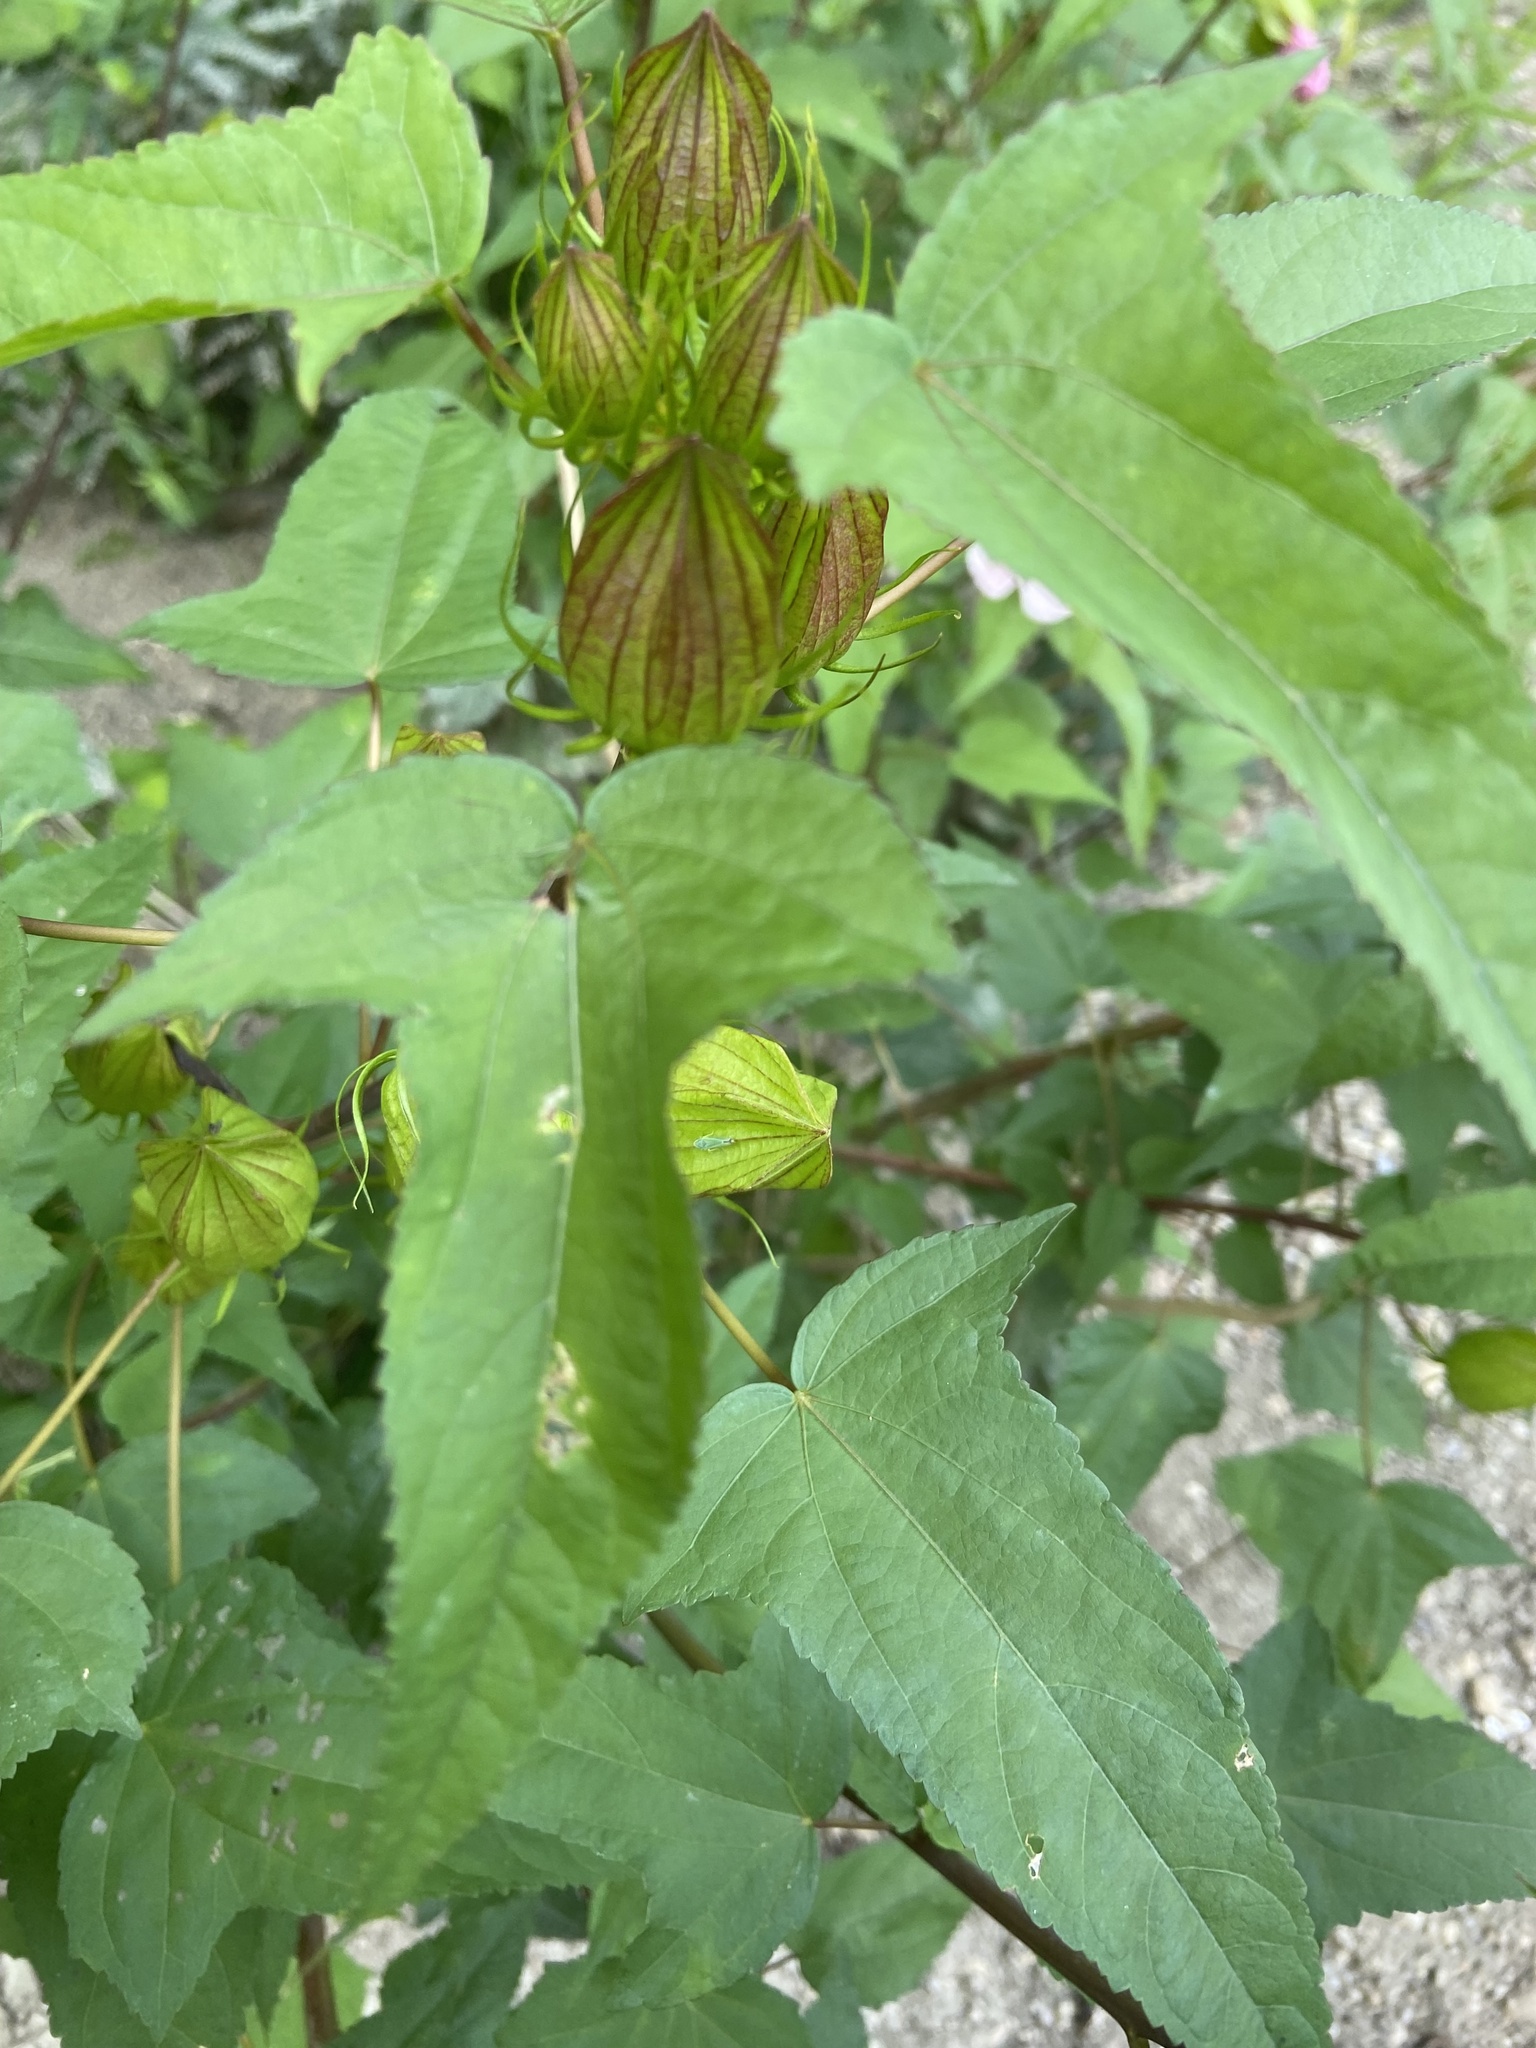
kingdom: Plantae
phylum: Tracheophyta
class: Magnoliopsida
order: Malvales
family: Malvaceae
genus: Hibiscus
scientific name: Hibiscus laevis
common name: Scarlet rose-mallow
